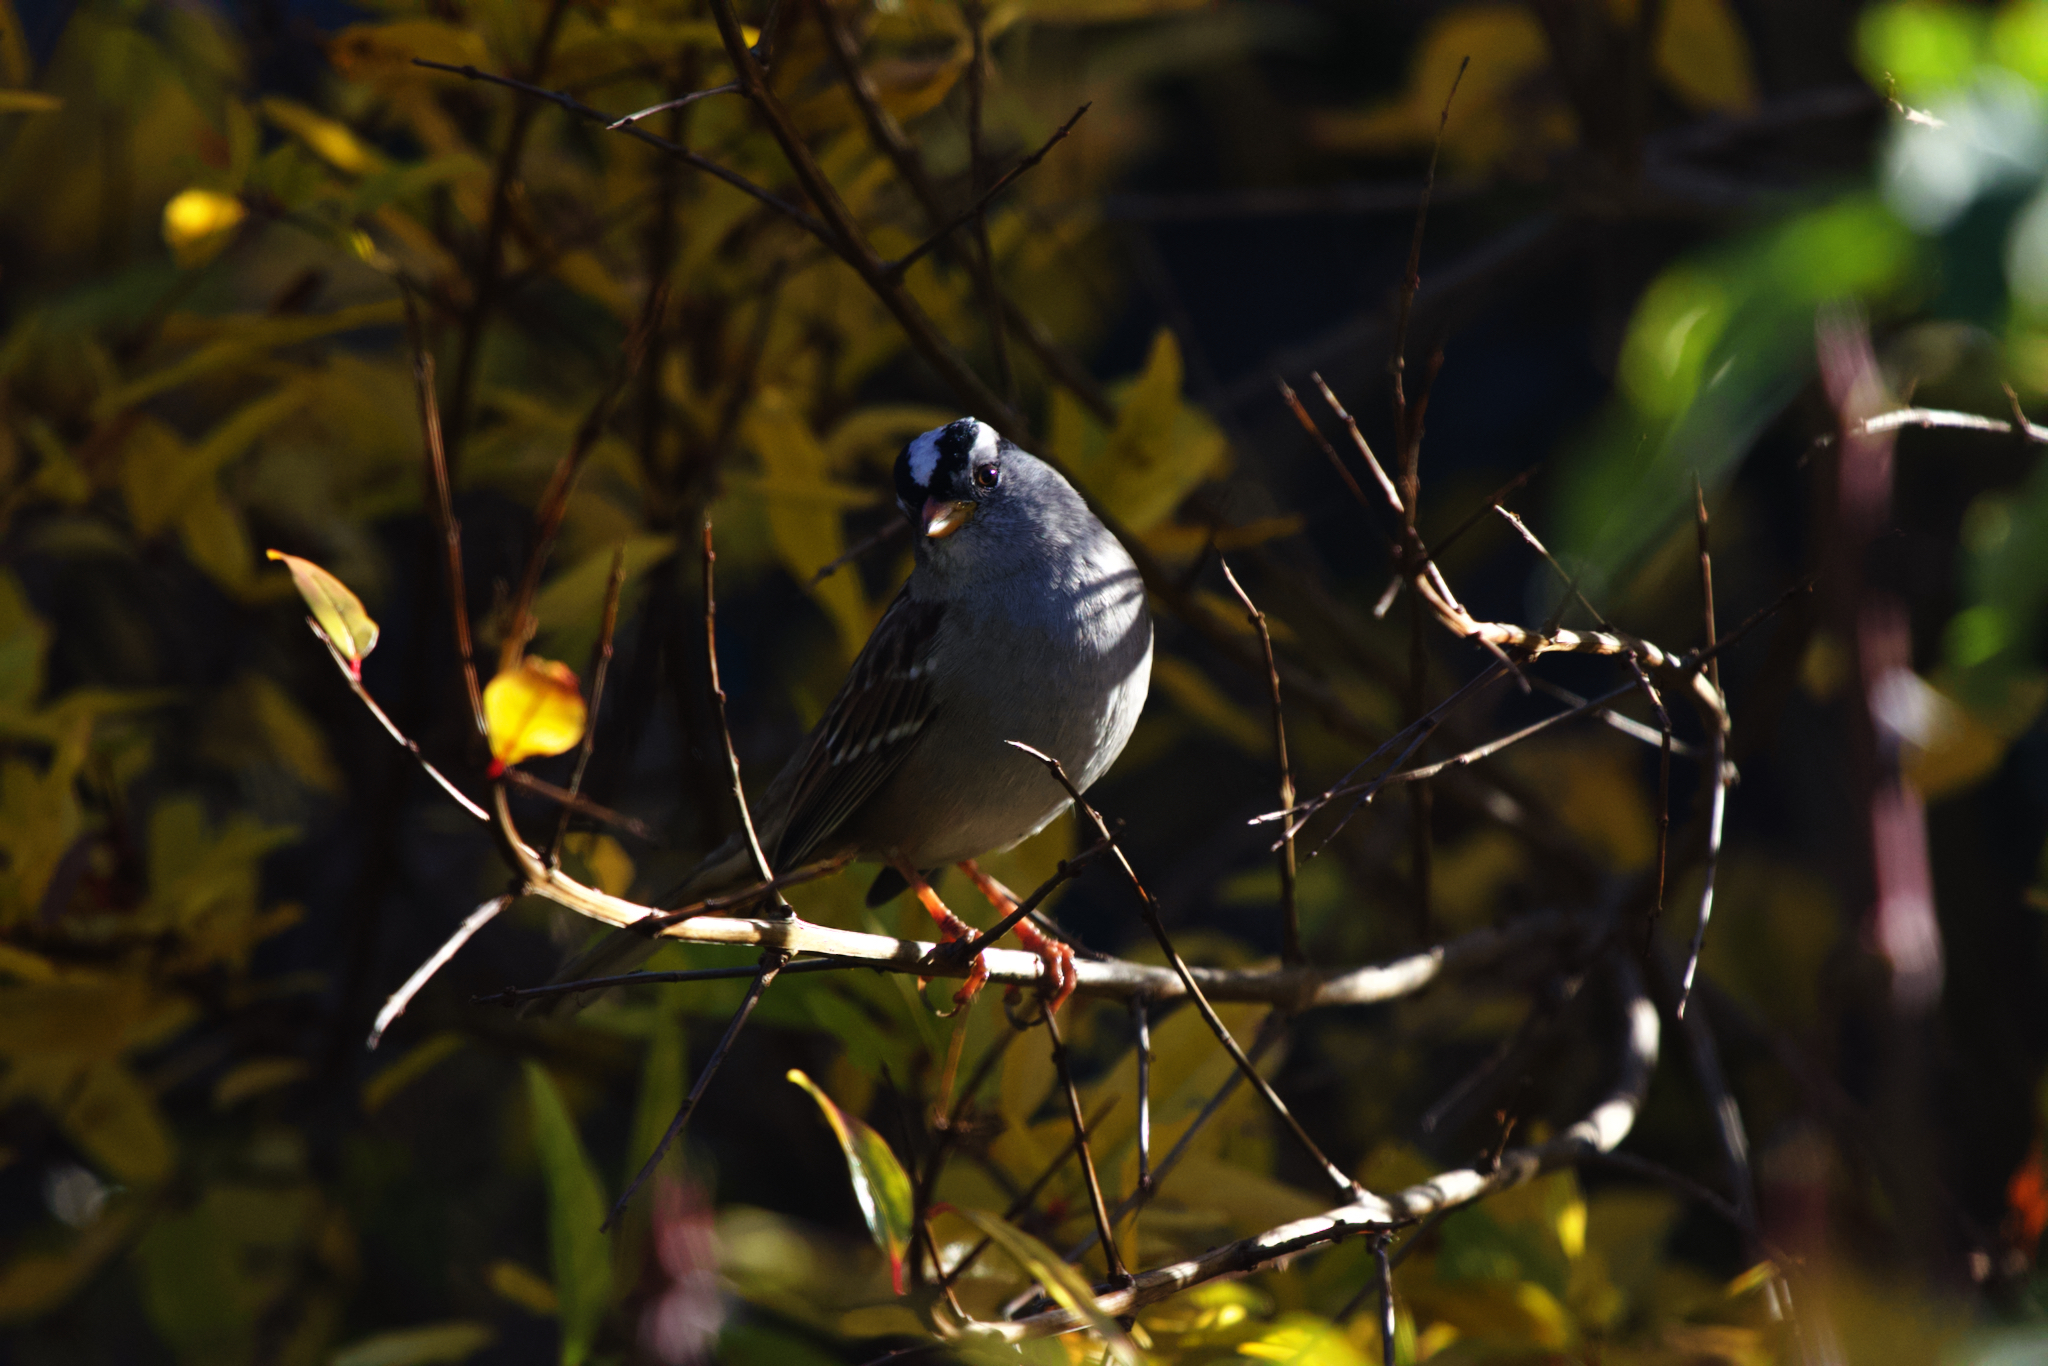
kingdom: Animalia
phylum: Chordata
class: Aves
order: Passeriformes
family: Passerellidae
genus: Zonotrichia
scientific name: Zonotrichia leucophrys
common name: White-crowned sparrow
